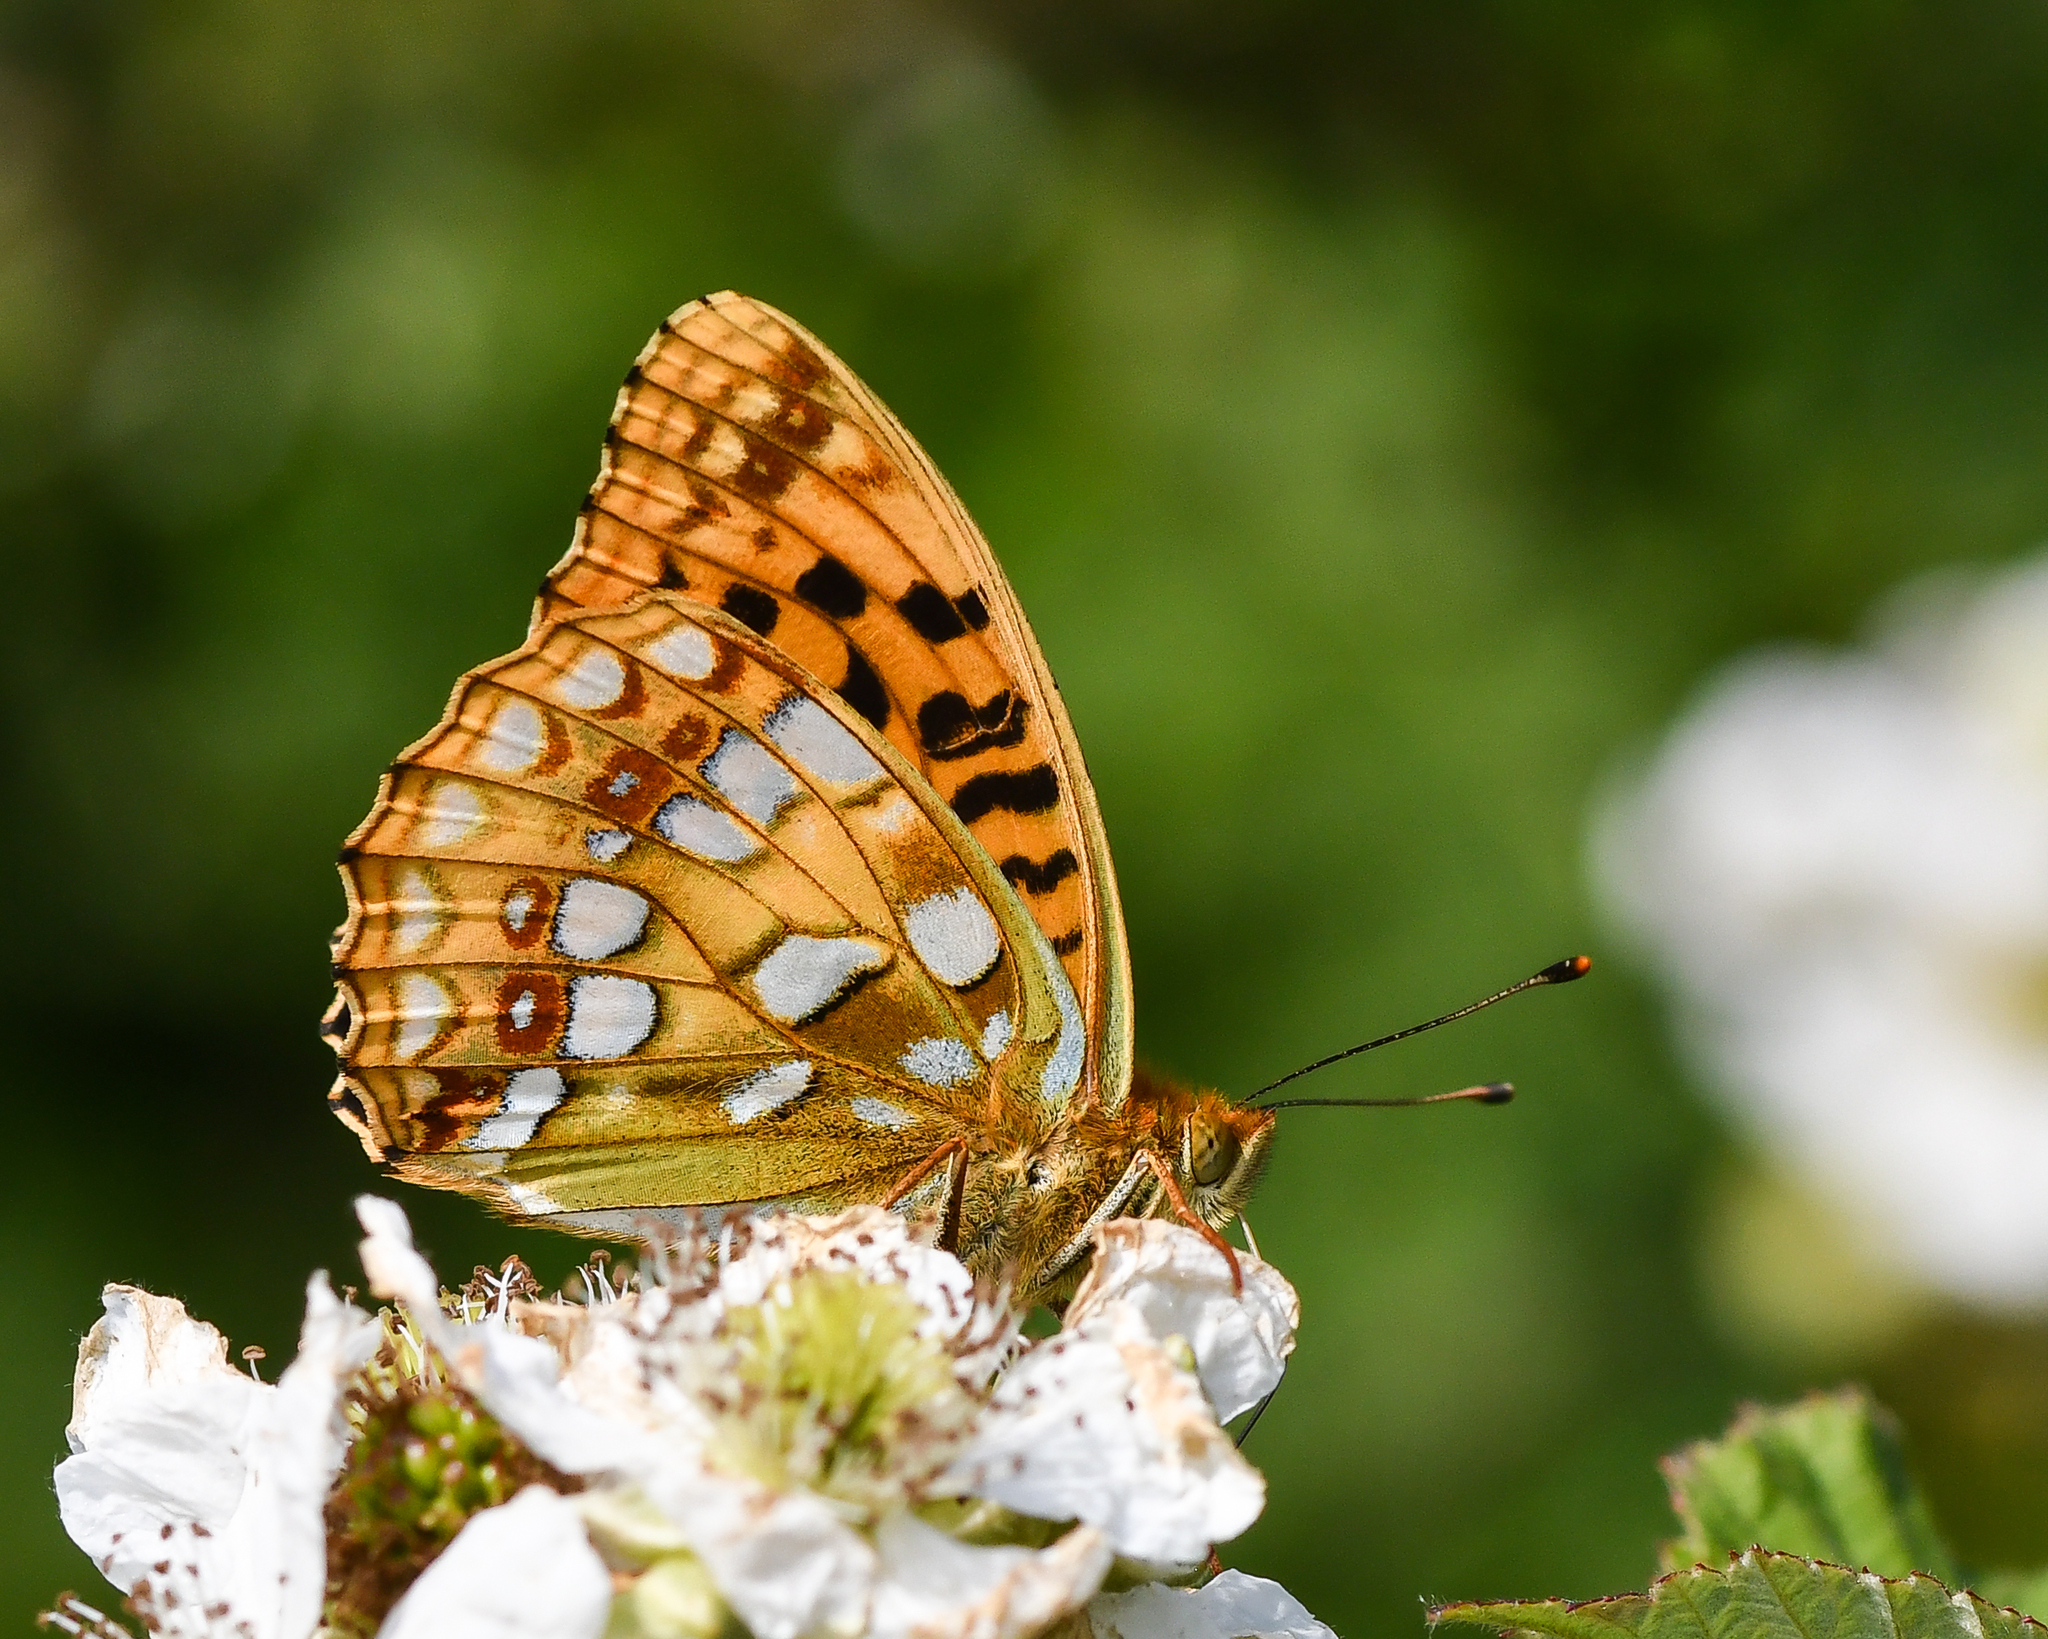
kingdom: Animalia
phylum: Arthropoda
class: Insecta
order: Lepidoptera
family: Nymphalidae
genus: Fabriciana
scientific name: Fabriciana adippe
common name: High brown fritillary
